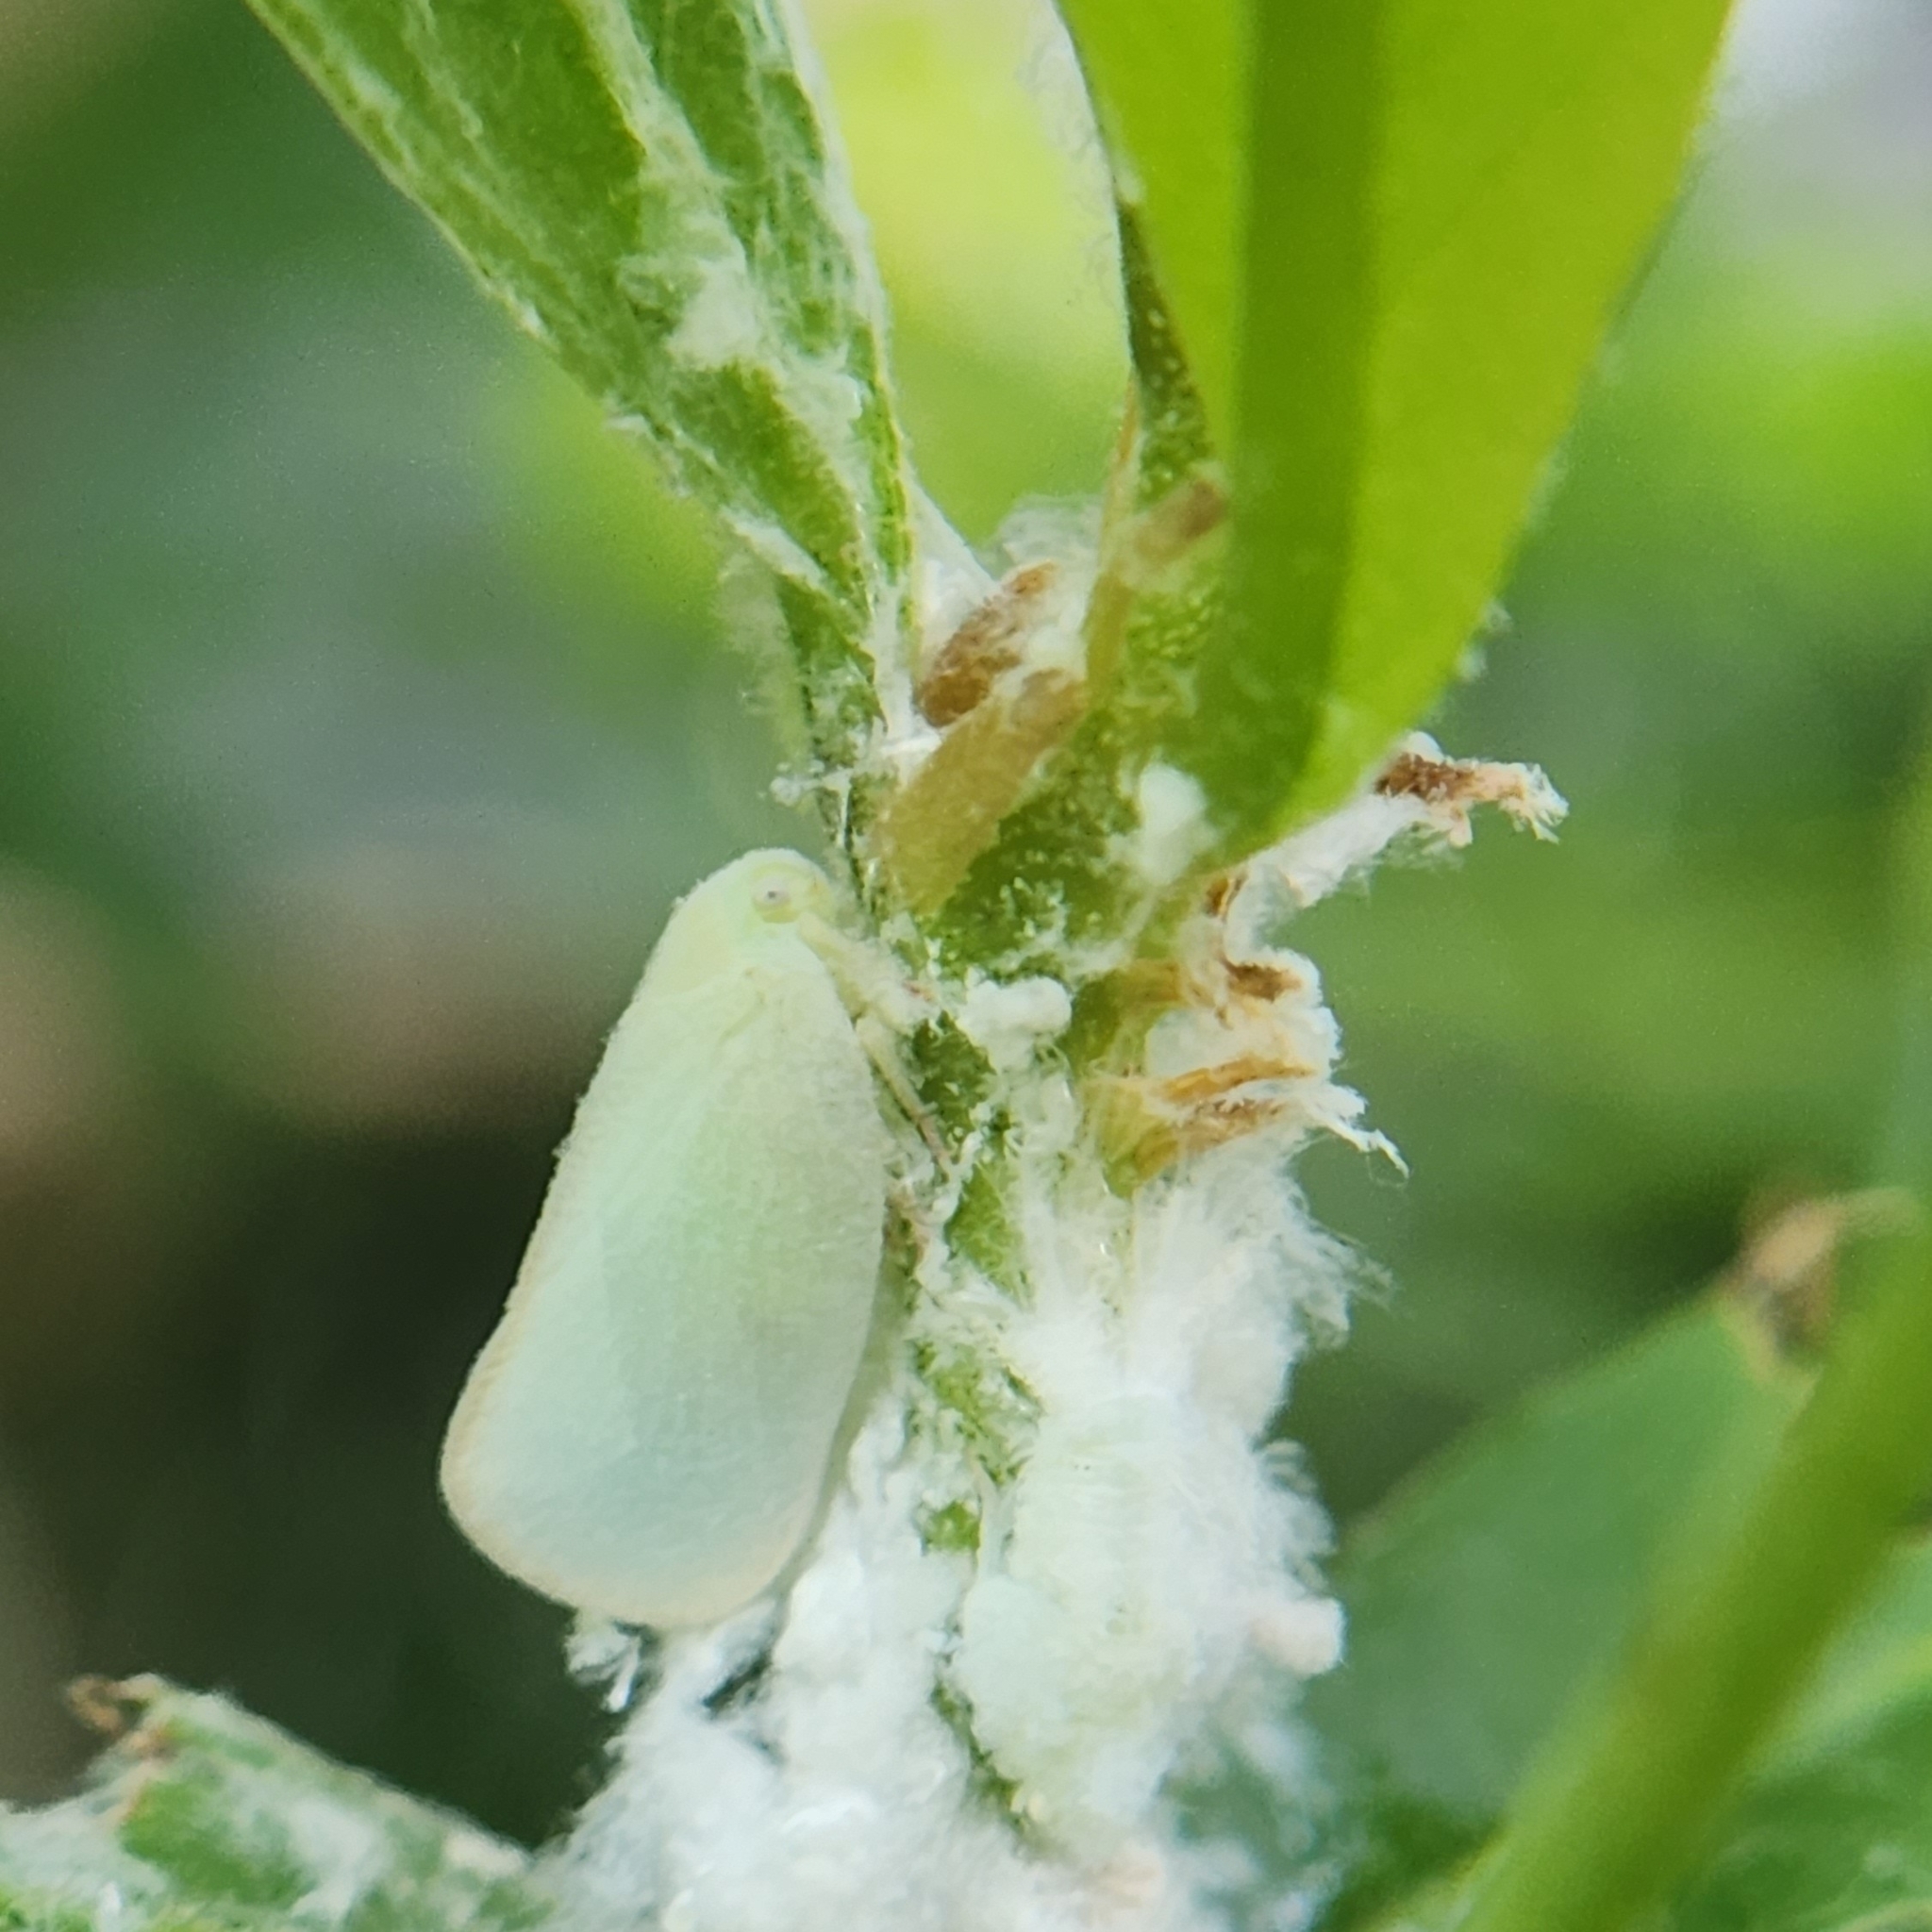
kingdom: Animalia
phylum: Arthropoda
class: Insecta
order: Hemiptera
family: Flatidae
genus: Ormenoides
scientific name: Ormenoides venusta
